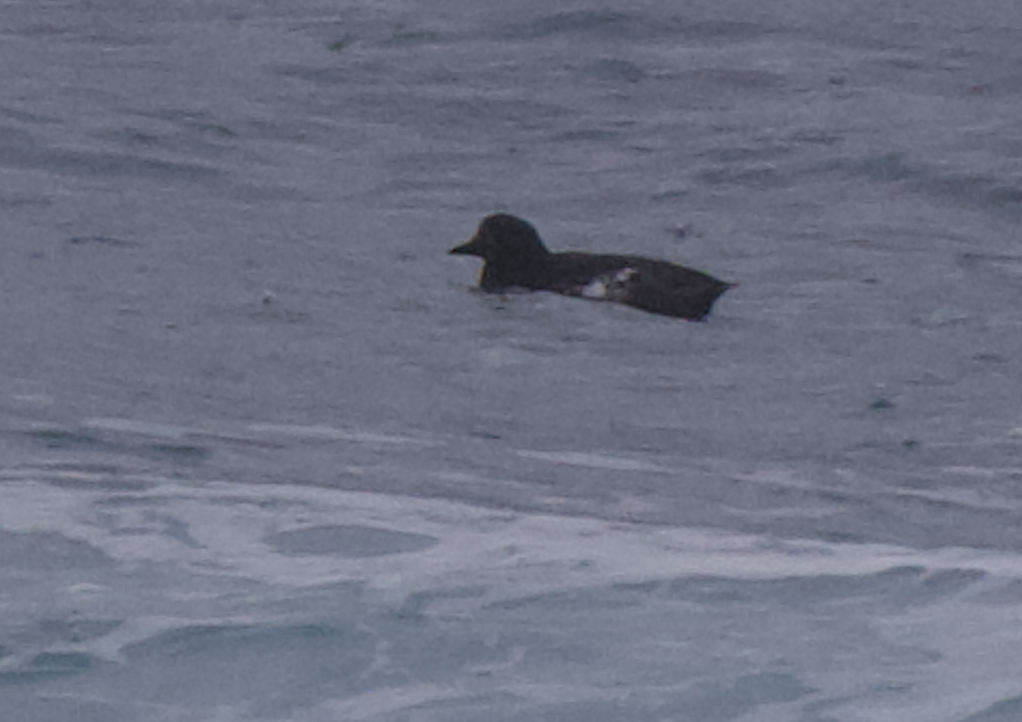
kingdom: Animalia
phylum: Chordata
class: Aves
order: Charadriiformes
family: Alcidae
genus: Cepphus
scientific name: Cepphus grylle
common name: Black guillemot
